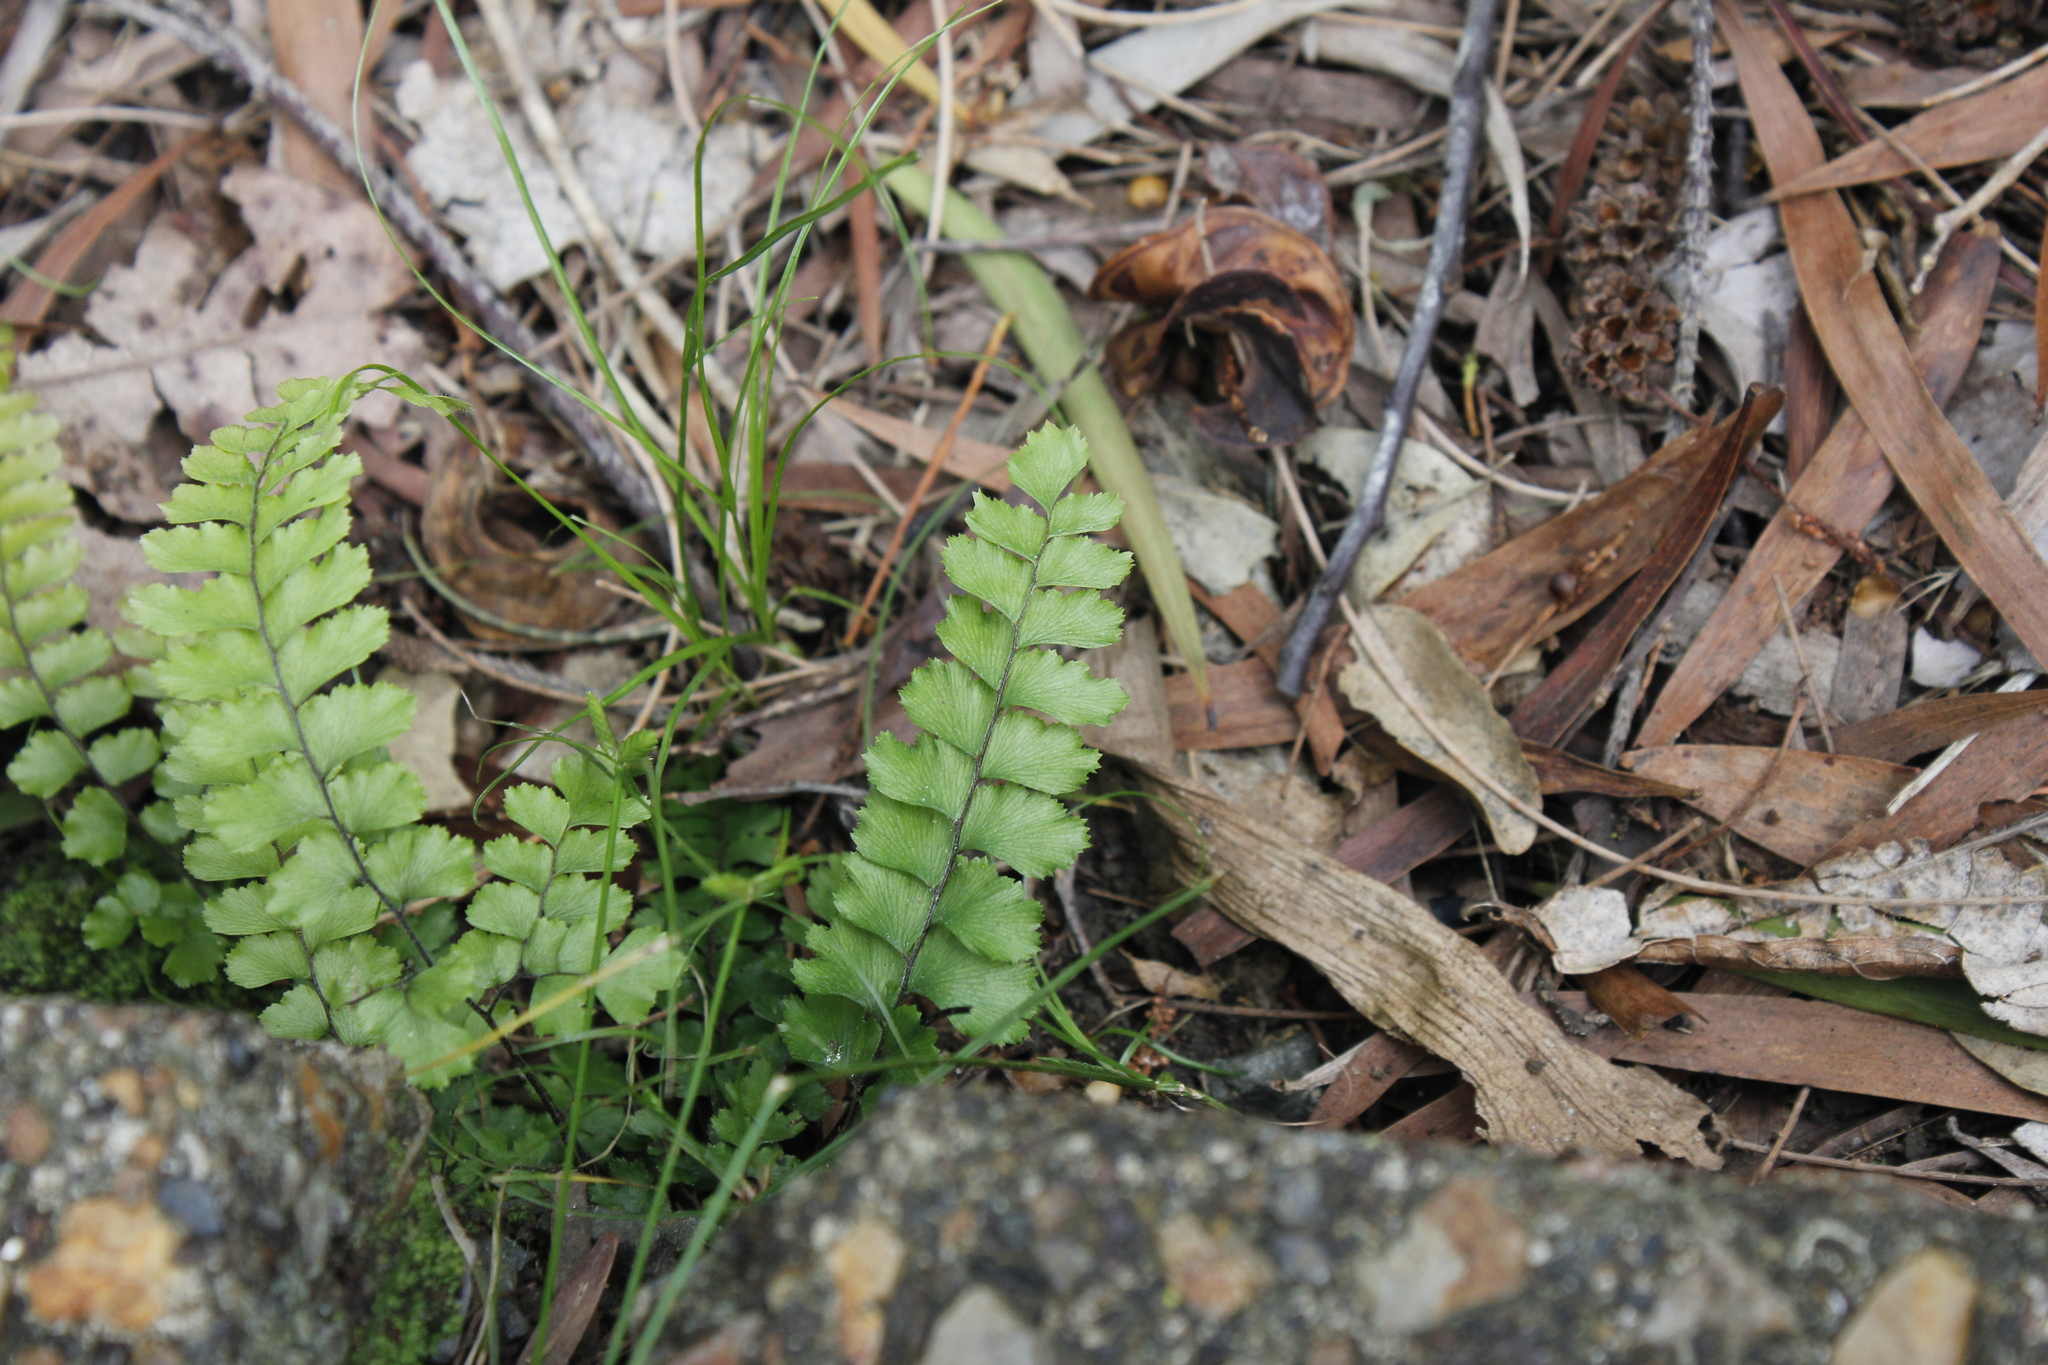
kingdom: Plantae
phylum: Tracheophyta
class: Polypodiopsida
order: Polypodiales
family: Pteridaceae
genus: Adiantum
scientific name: Adiantum fournieri
